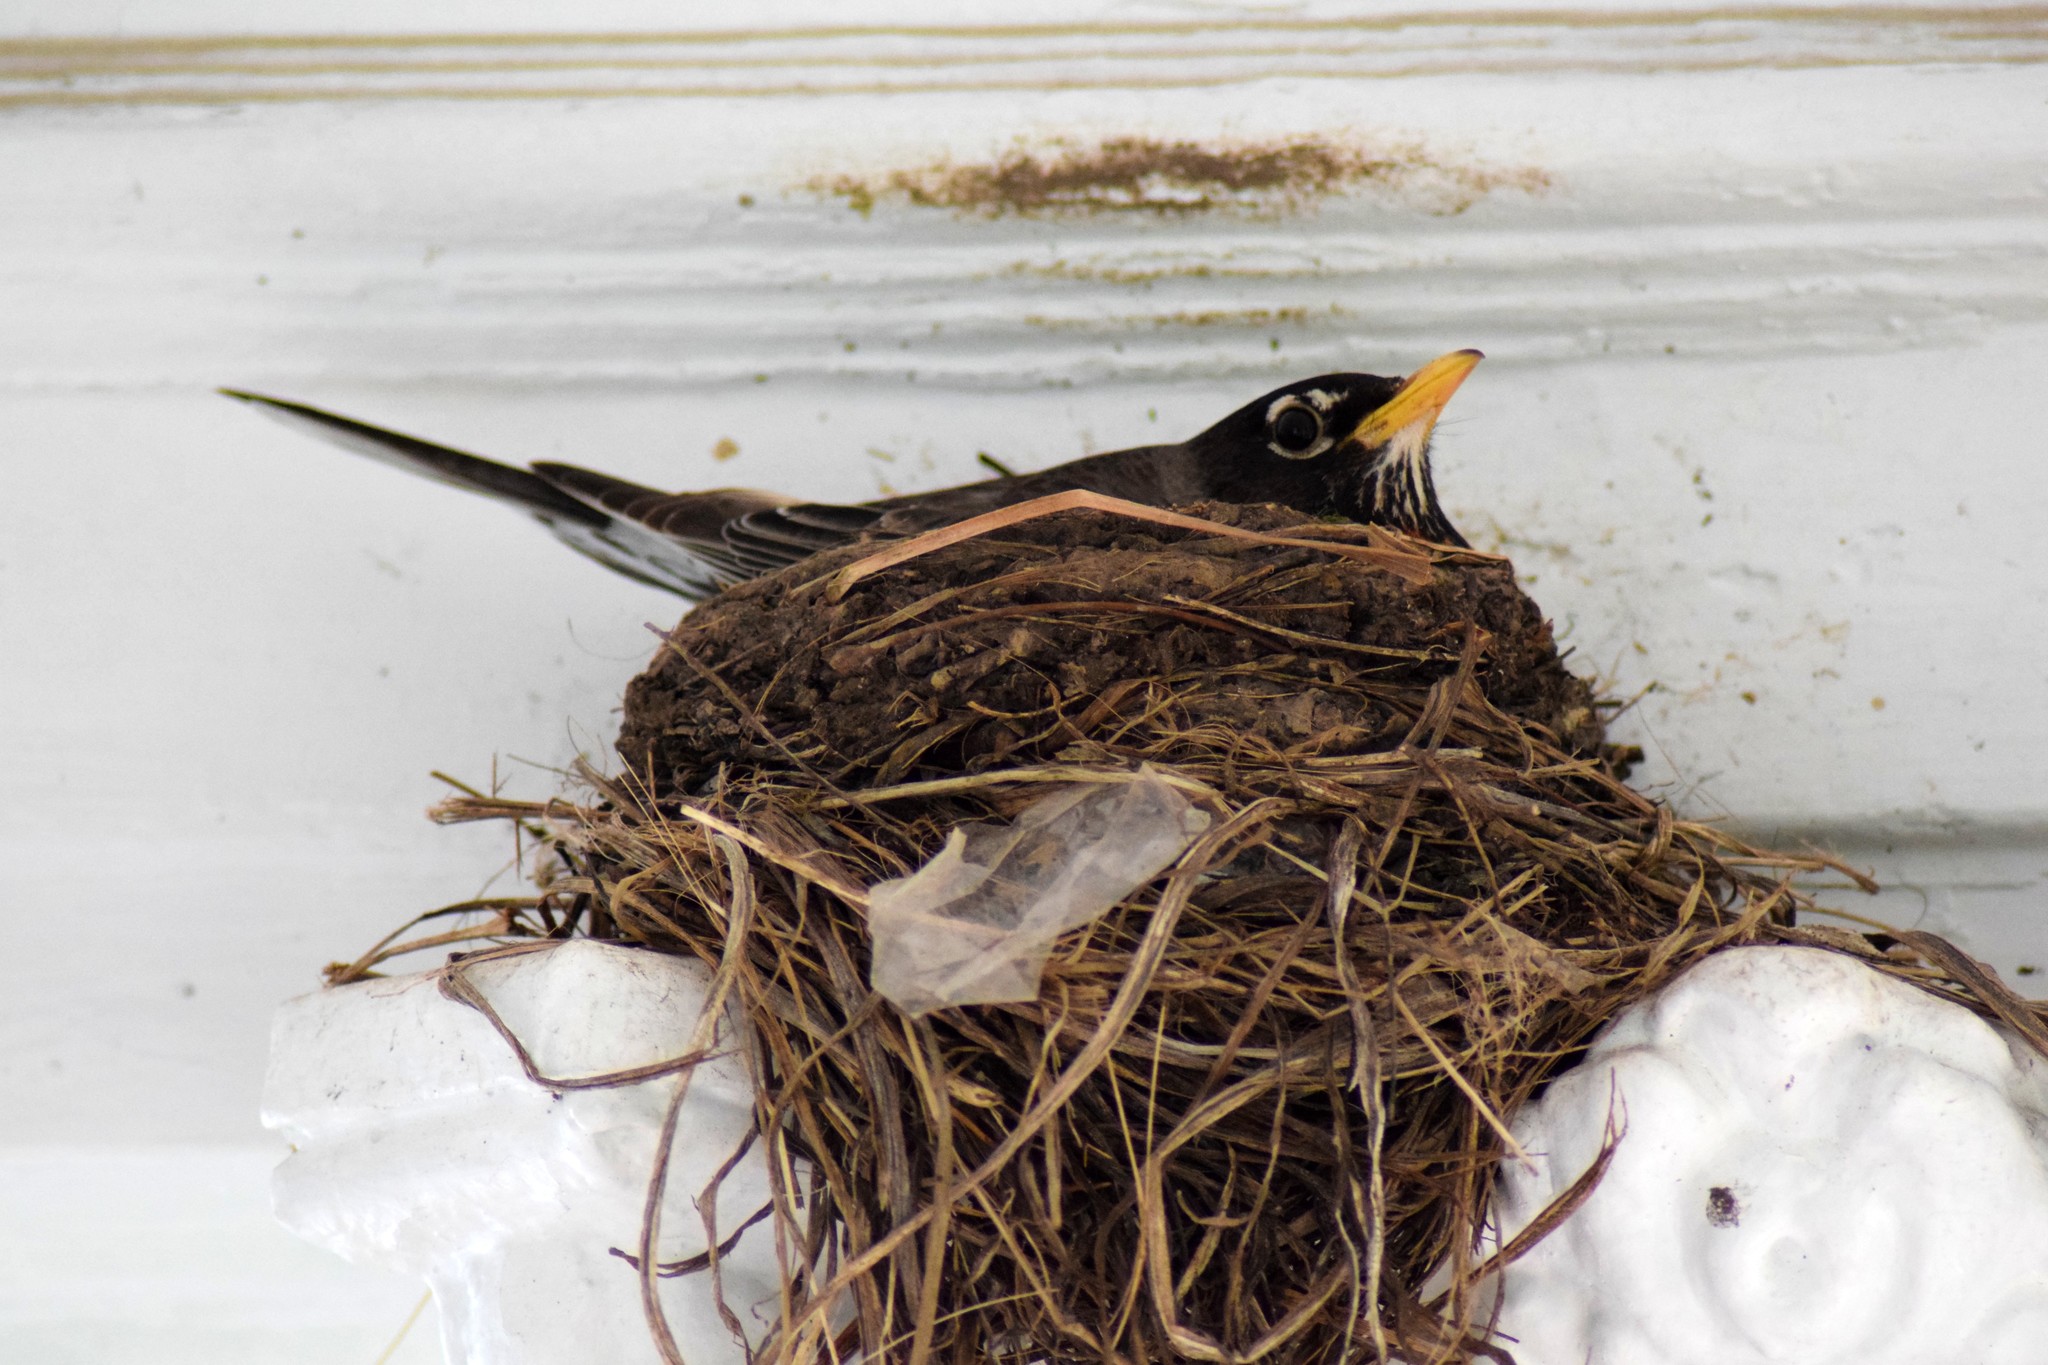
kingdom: Animalia
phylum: Chordata
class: Aves
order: Passeriformes
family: Turdidae
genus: Turdus
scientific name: Turdus migratorius
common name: American robin
